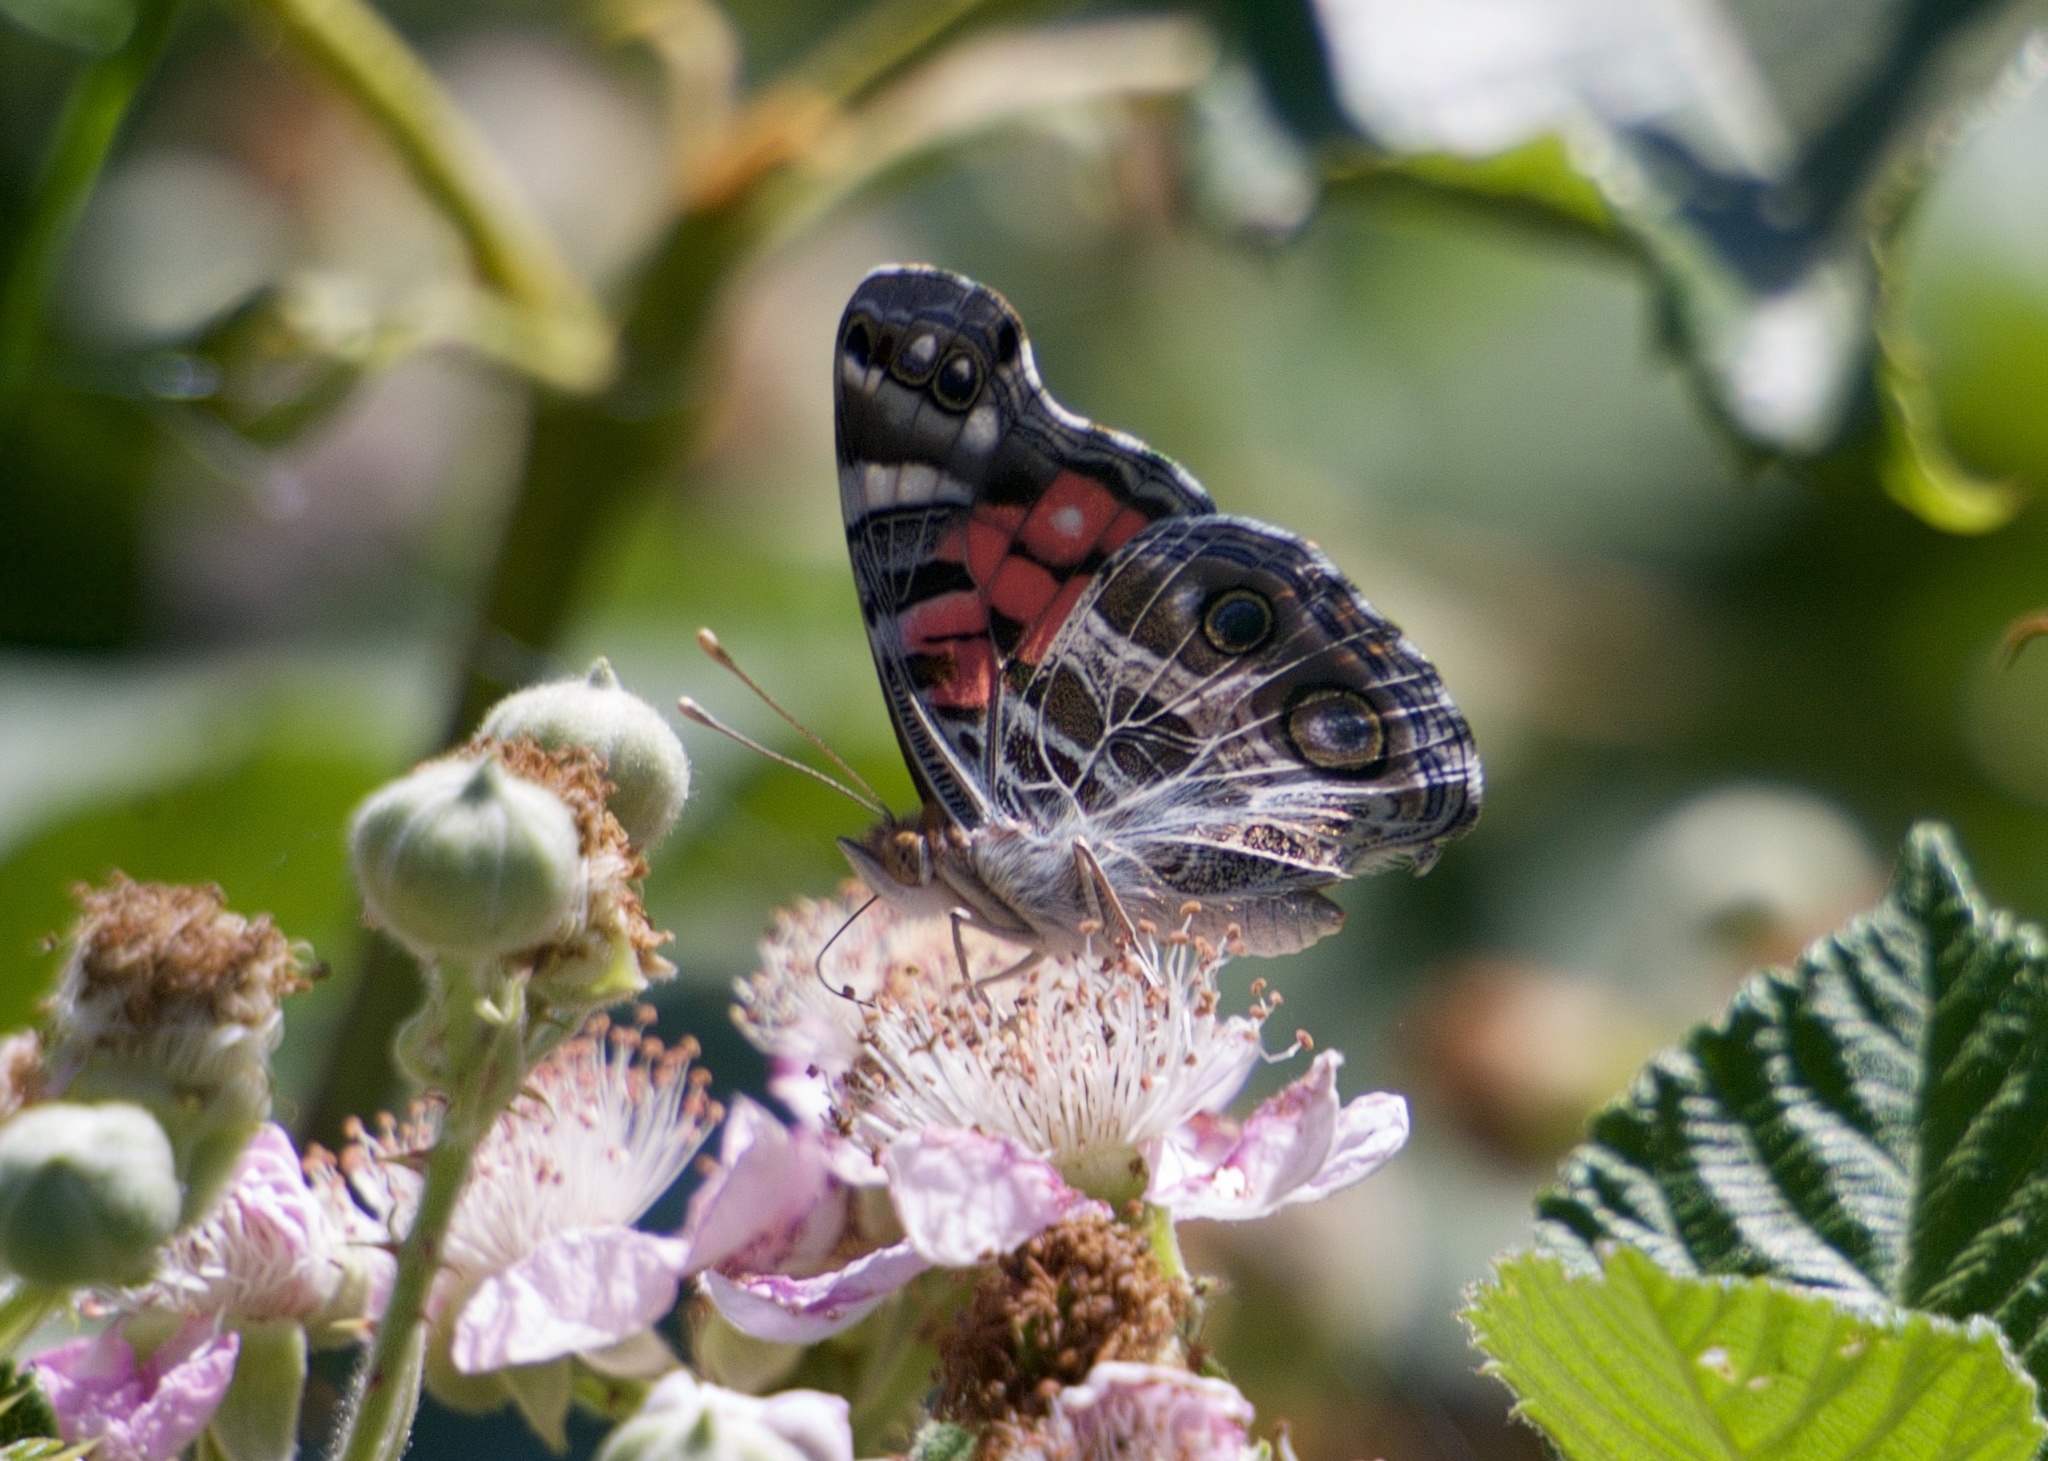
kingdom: Animalia
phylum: Arthropoda
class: Insecta
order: Lepidoptera
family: Nymphalidae
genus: Vanessa
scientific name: Vanessa virginiensis
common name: American lady
